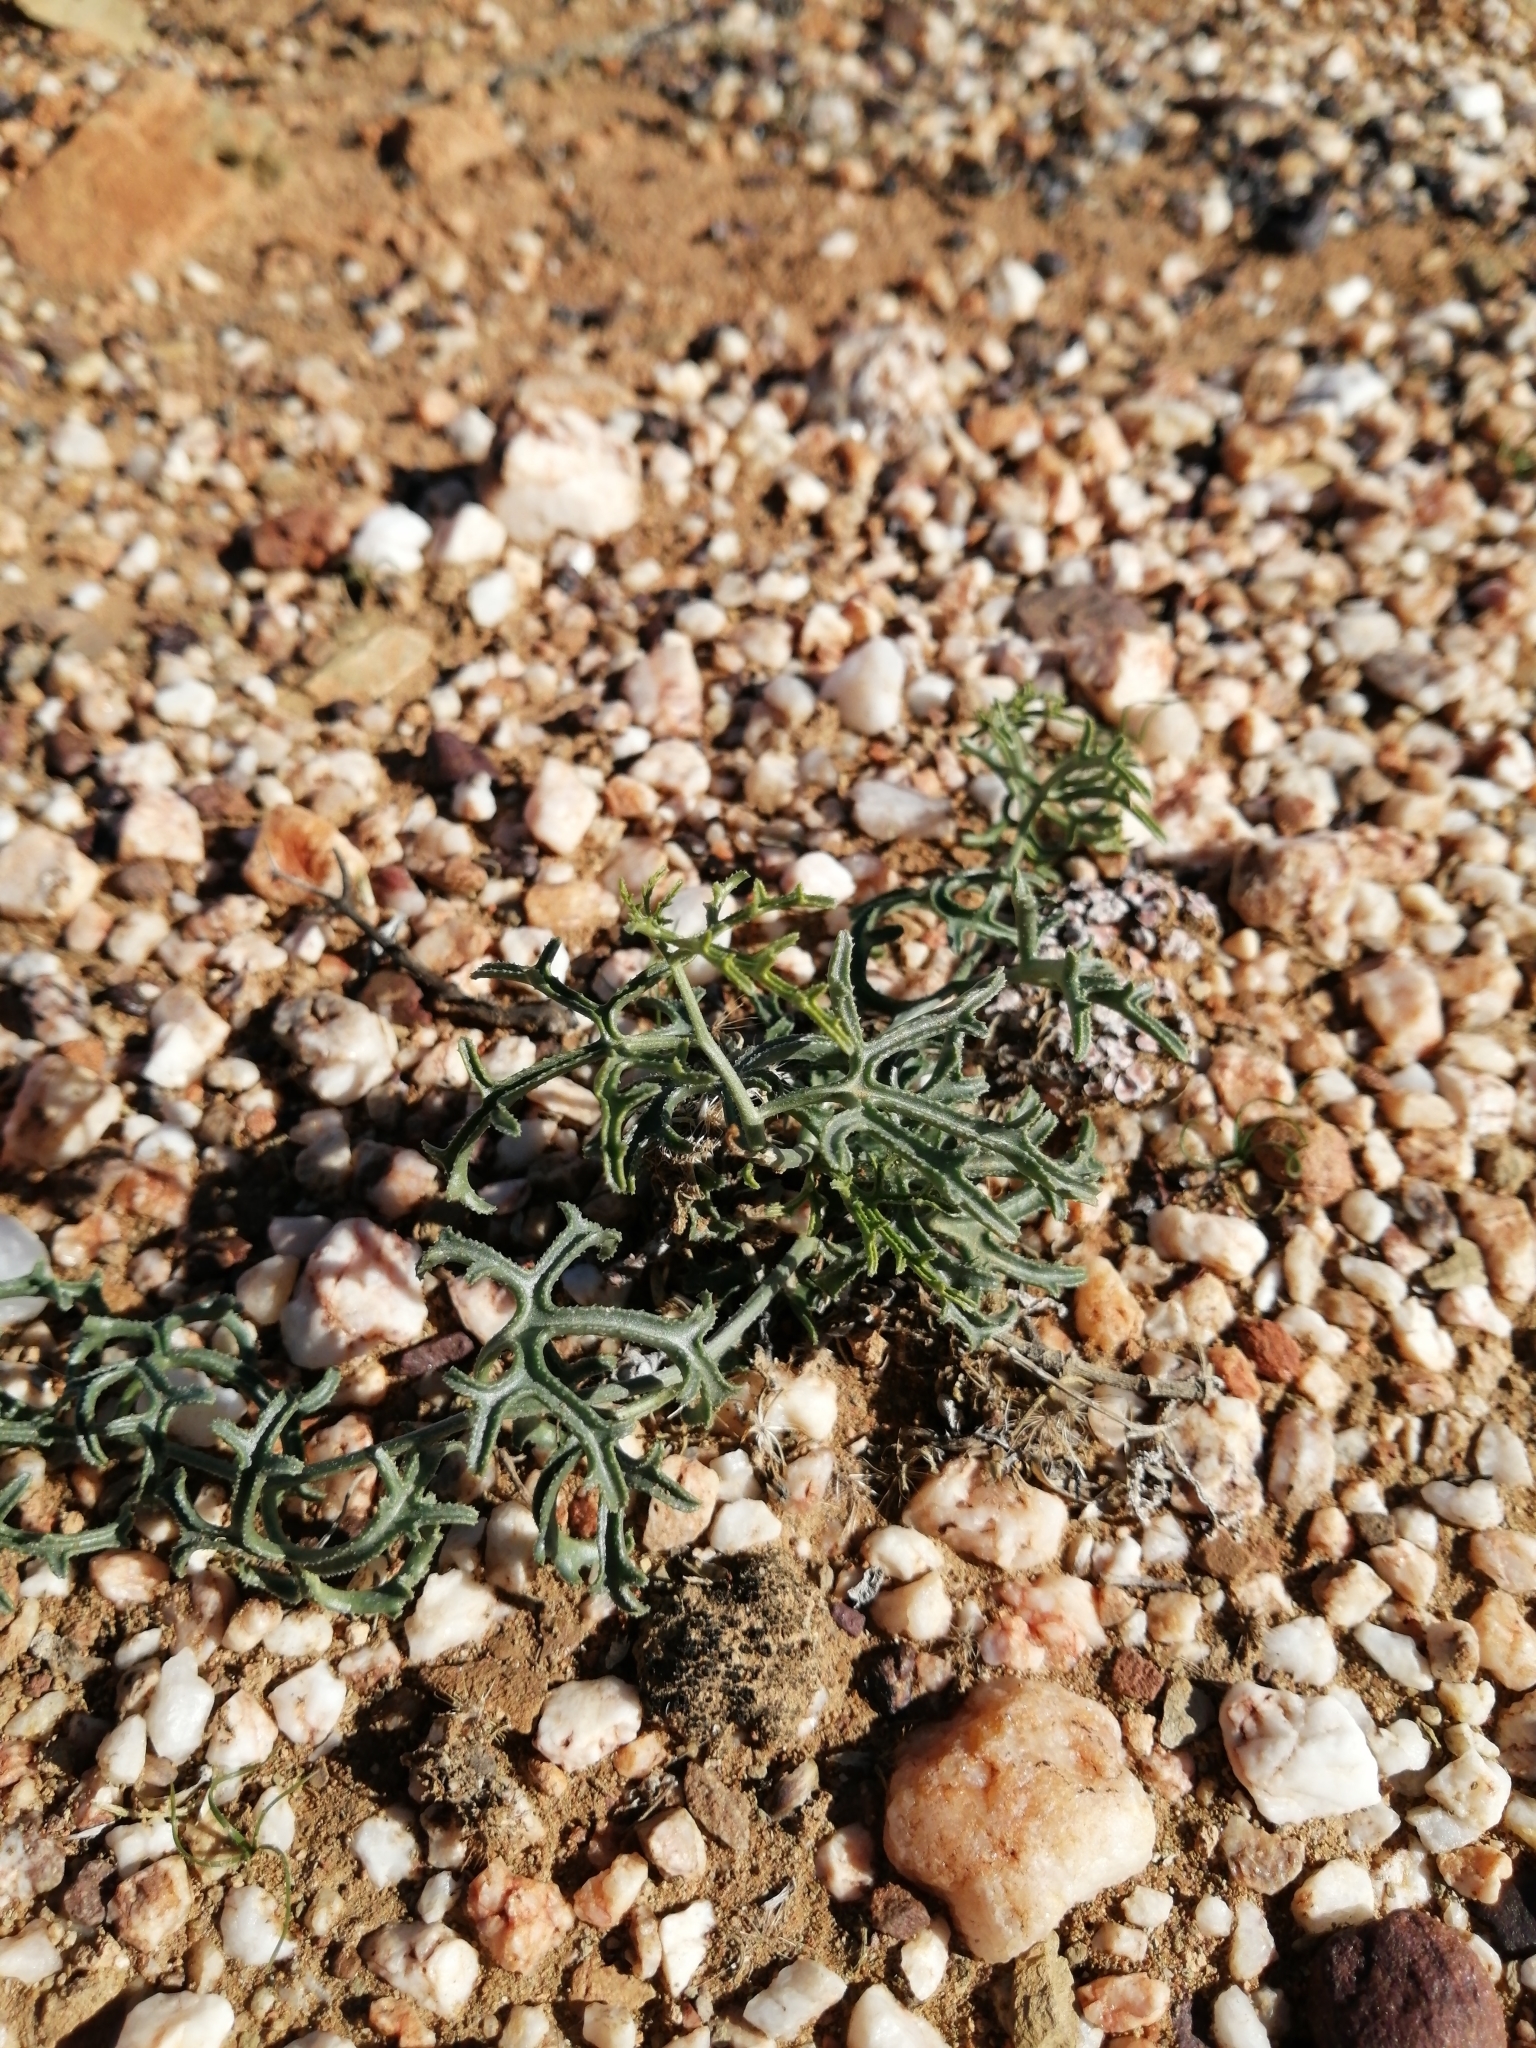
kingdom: Plantae
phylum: Tracheophyta
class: Magnoliopsida
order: Cucurbitales
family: Cucurbitaceae
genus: Kedrostis
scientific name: Kedrostis capensis
